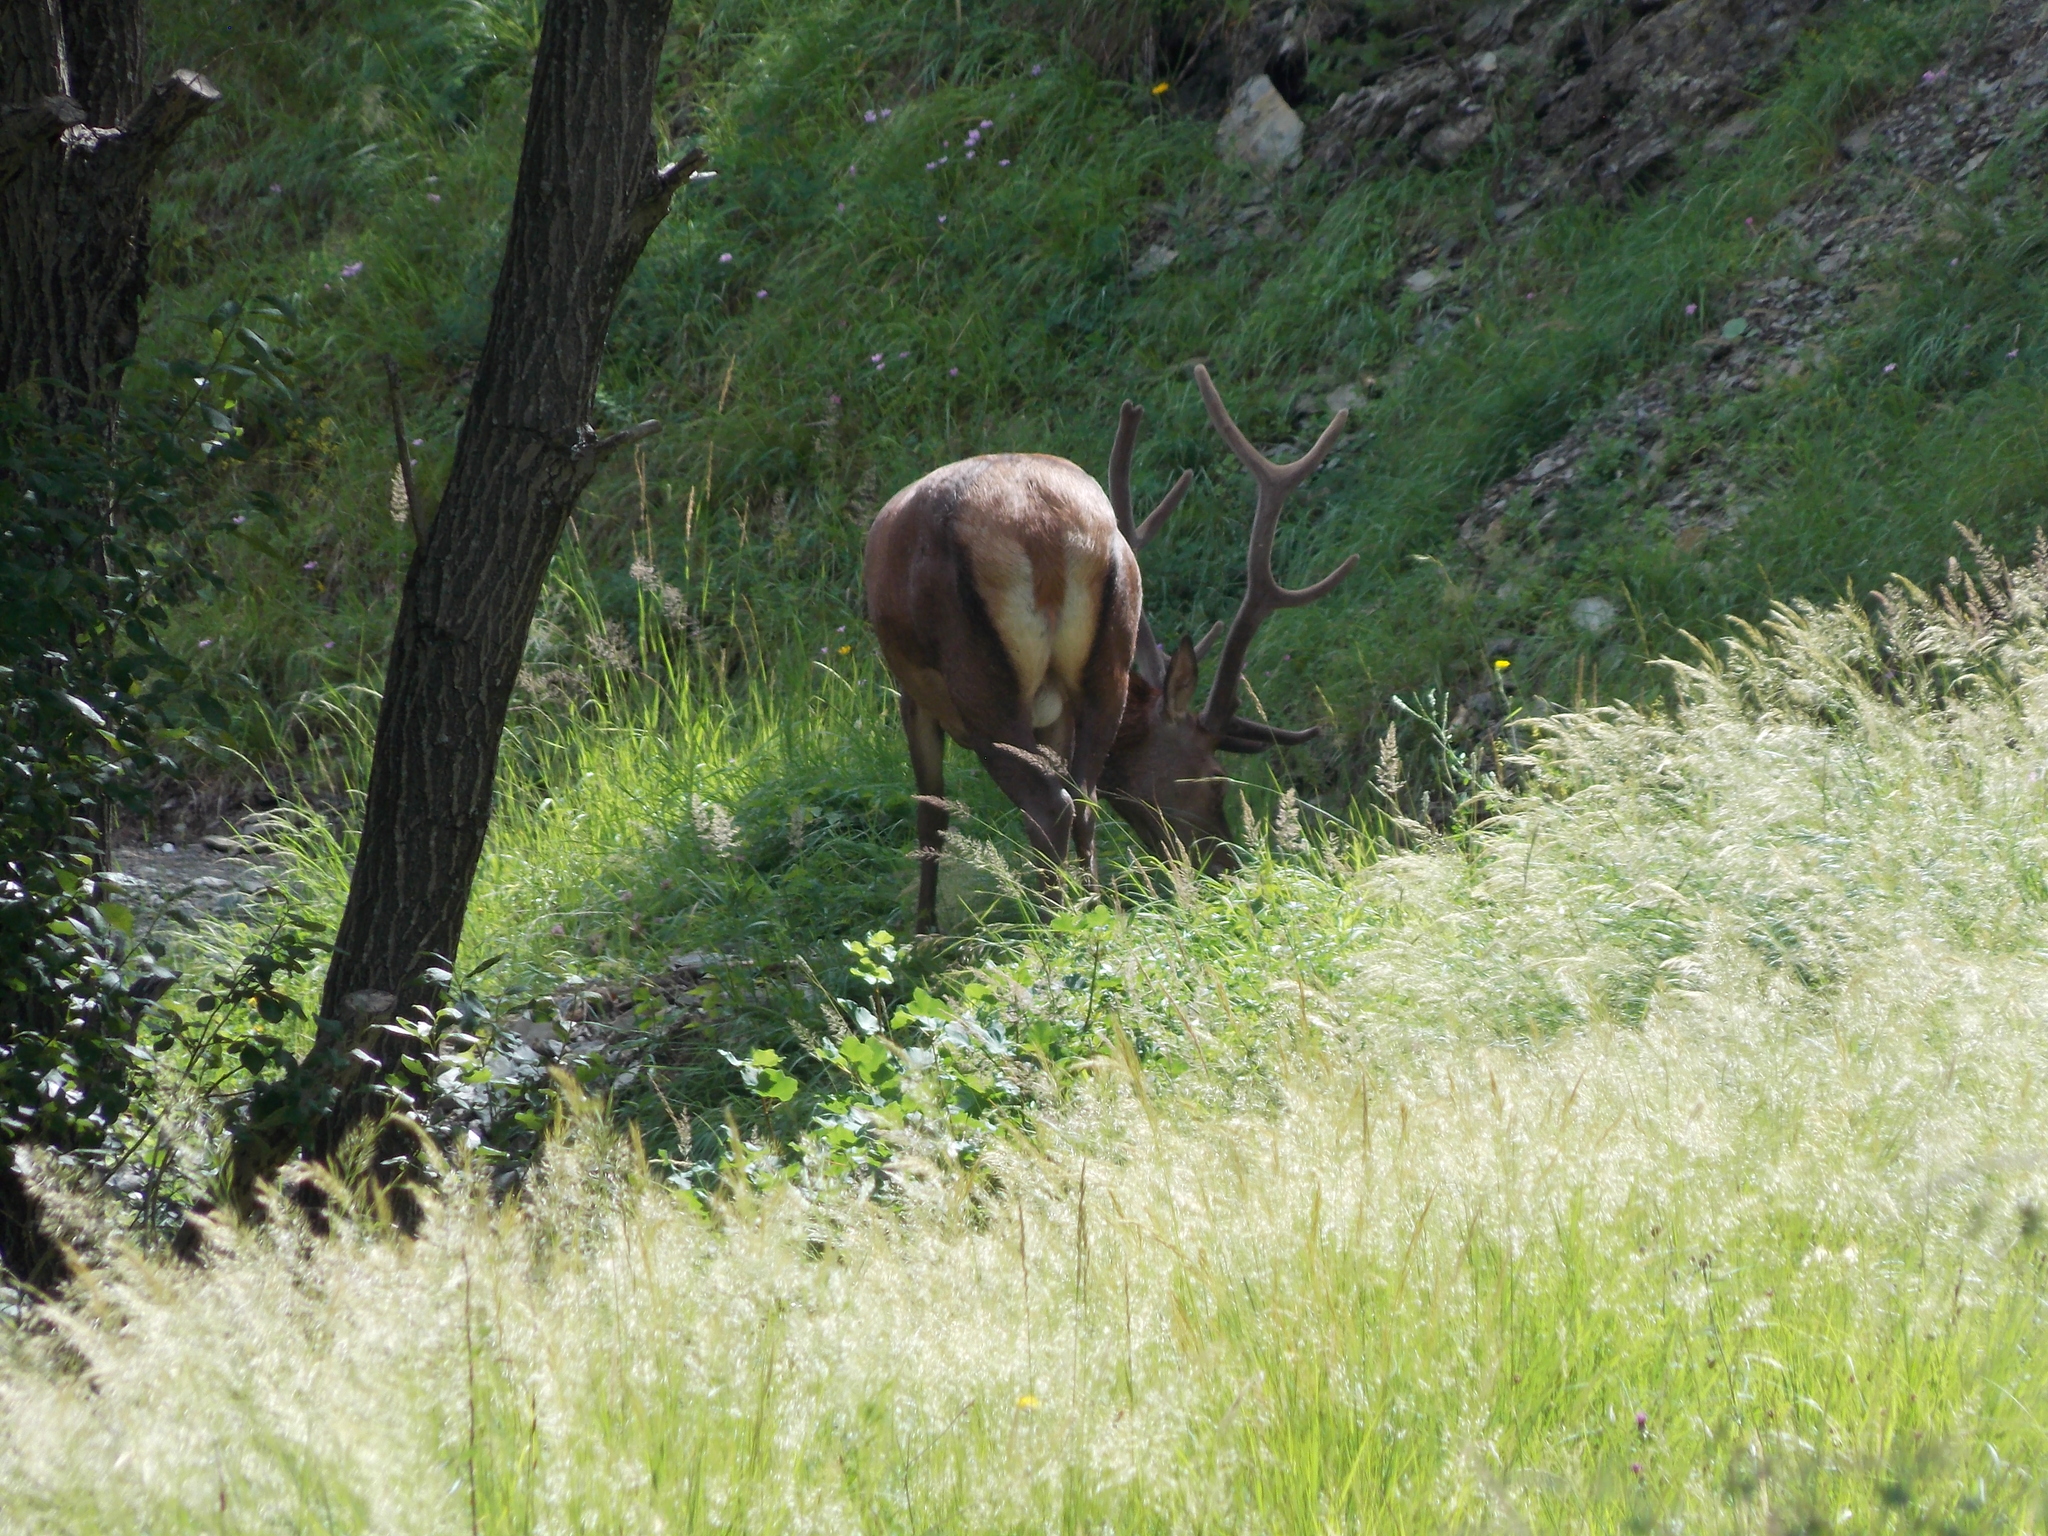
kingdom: Animalia
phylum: Chordata
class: Mammalia
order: Artiodactyla
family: Cervidae
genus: Cervus
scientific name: Cervus elaphus
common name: Red deer
